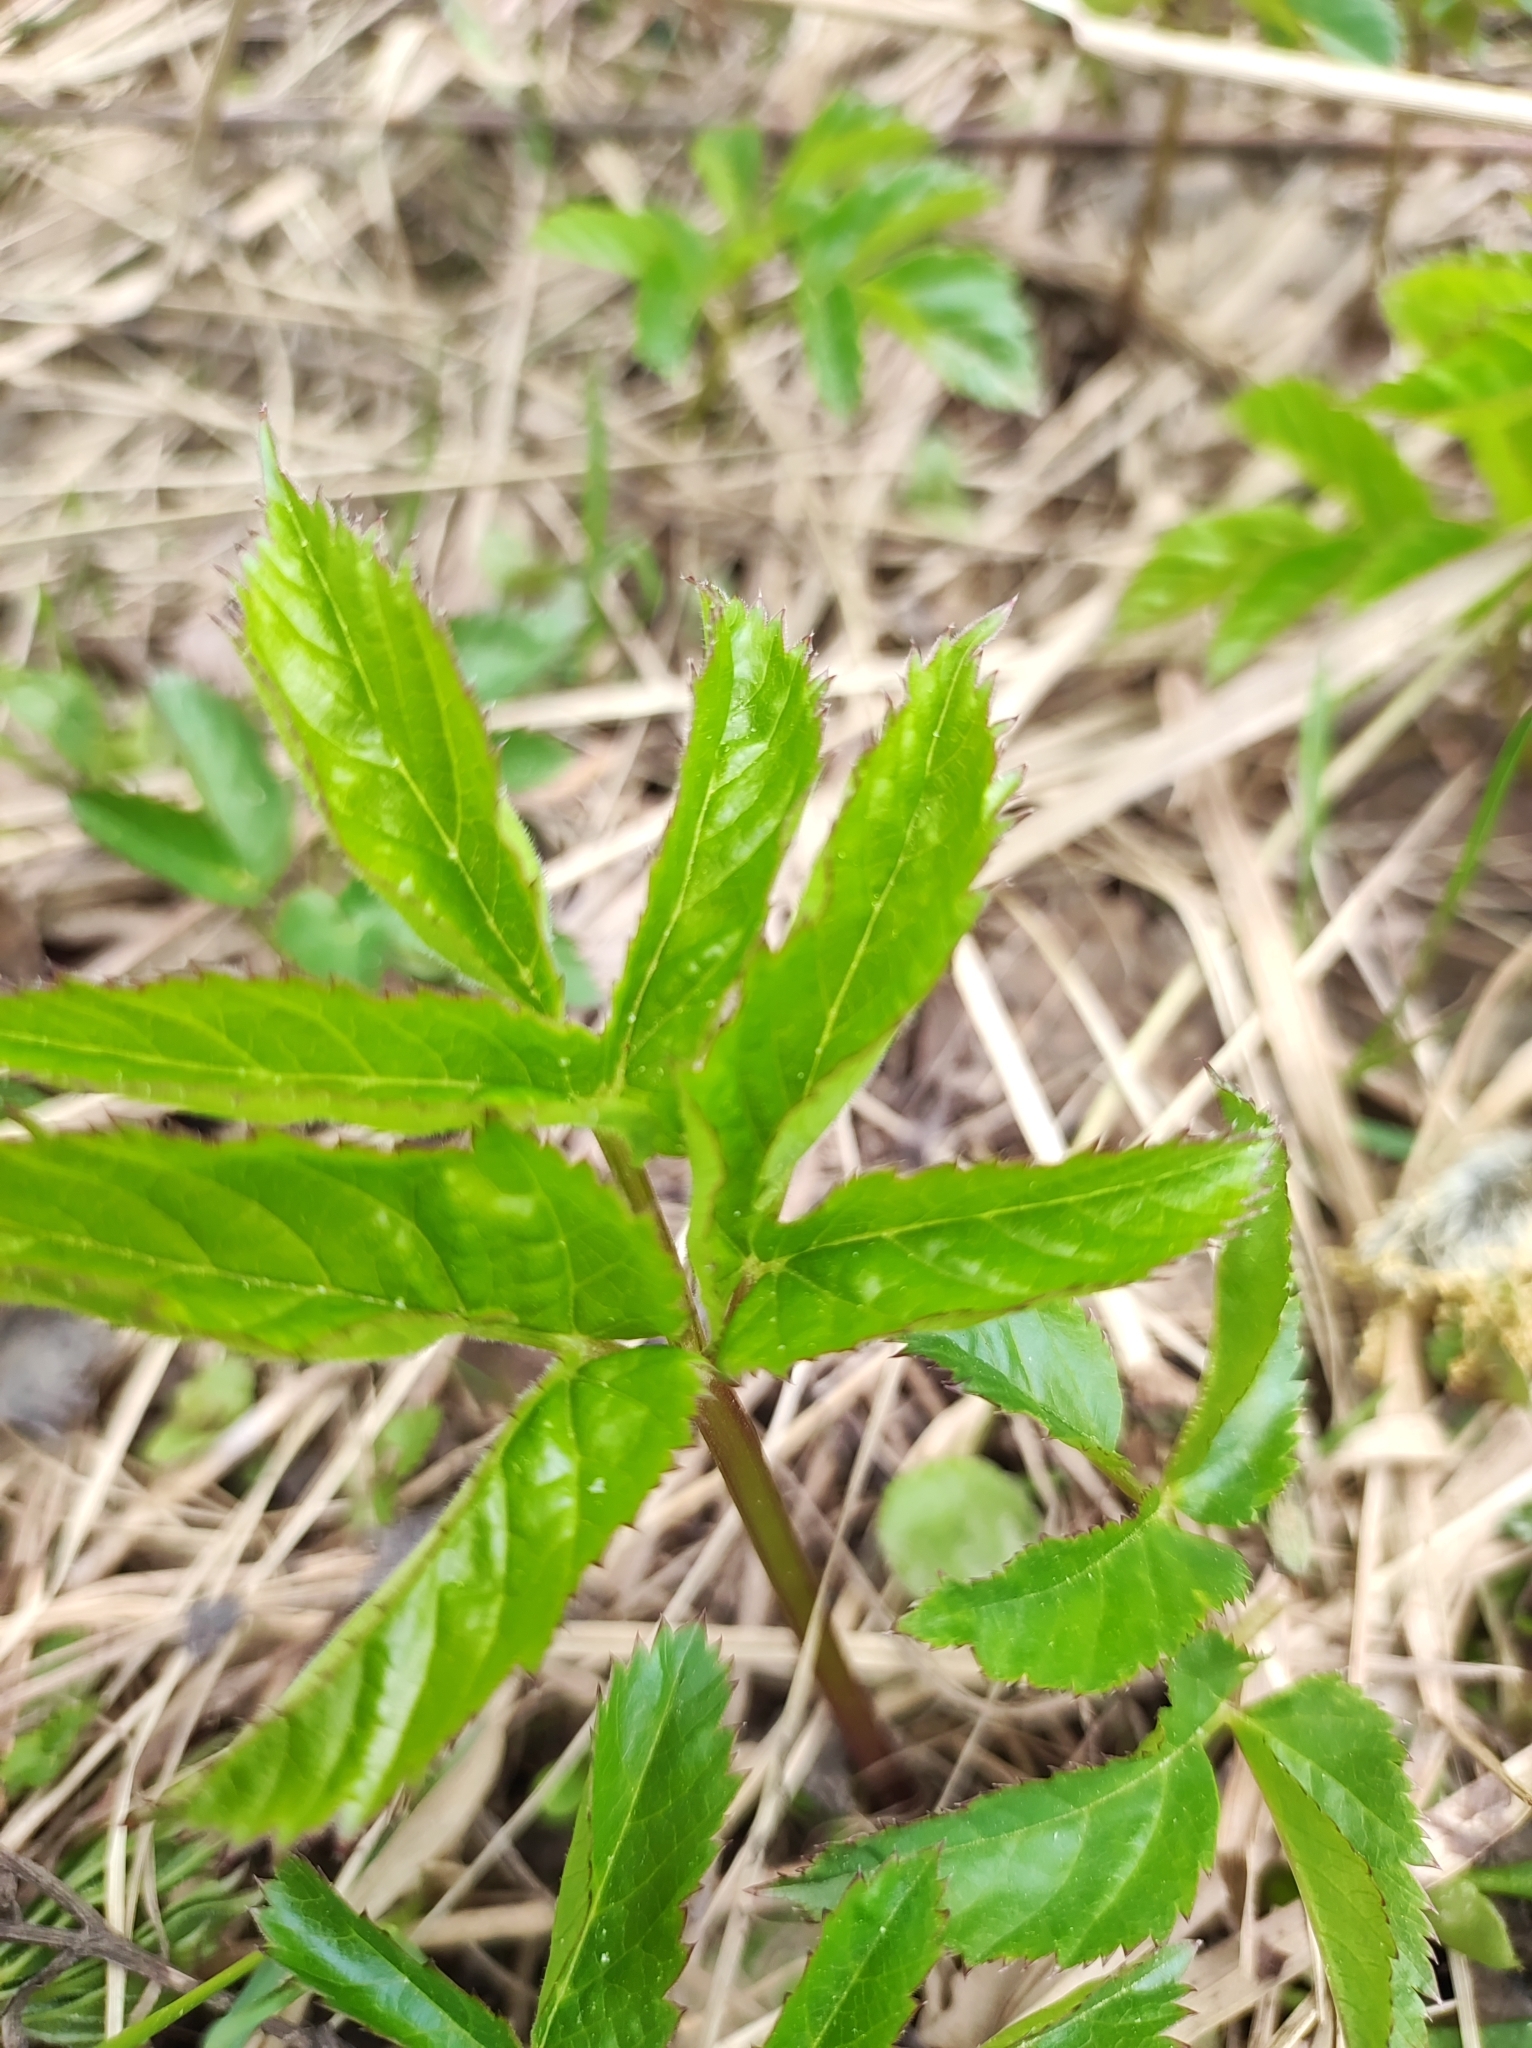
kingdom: Plantae
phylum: Tracheophyta
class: Magnoliopsida
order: Apiales
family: Apiaceae
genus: Aegopodium
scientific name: Aegopodium podagraria
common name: Ground-elder
